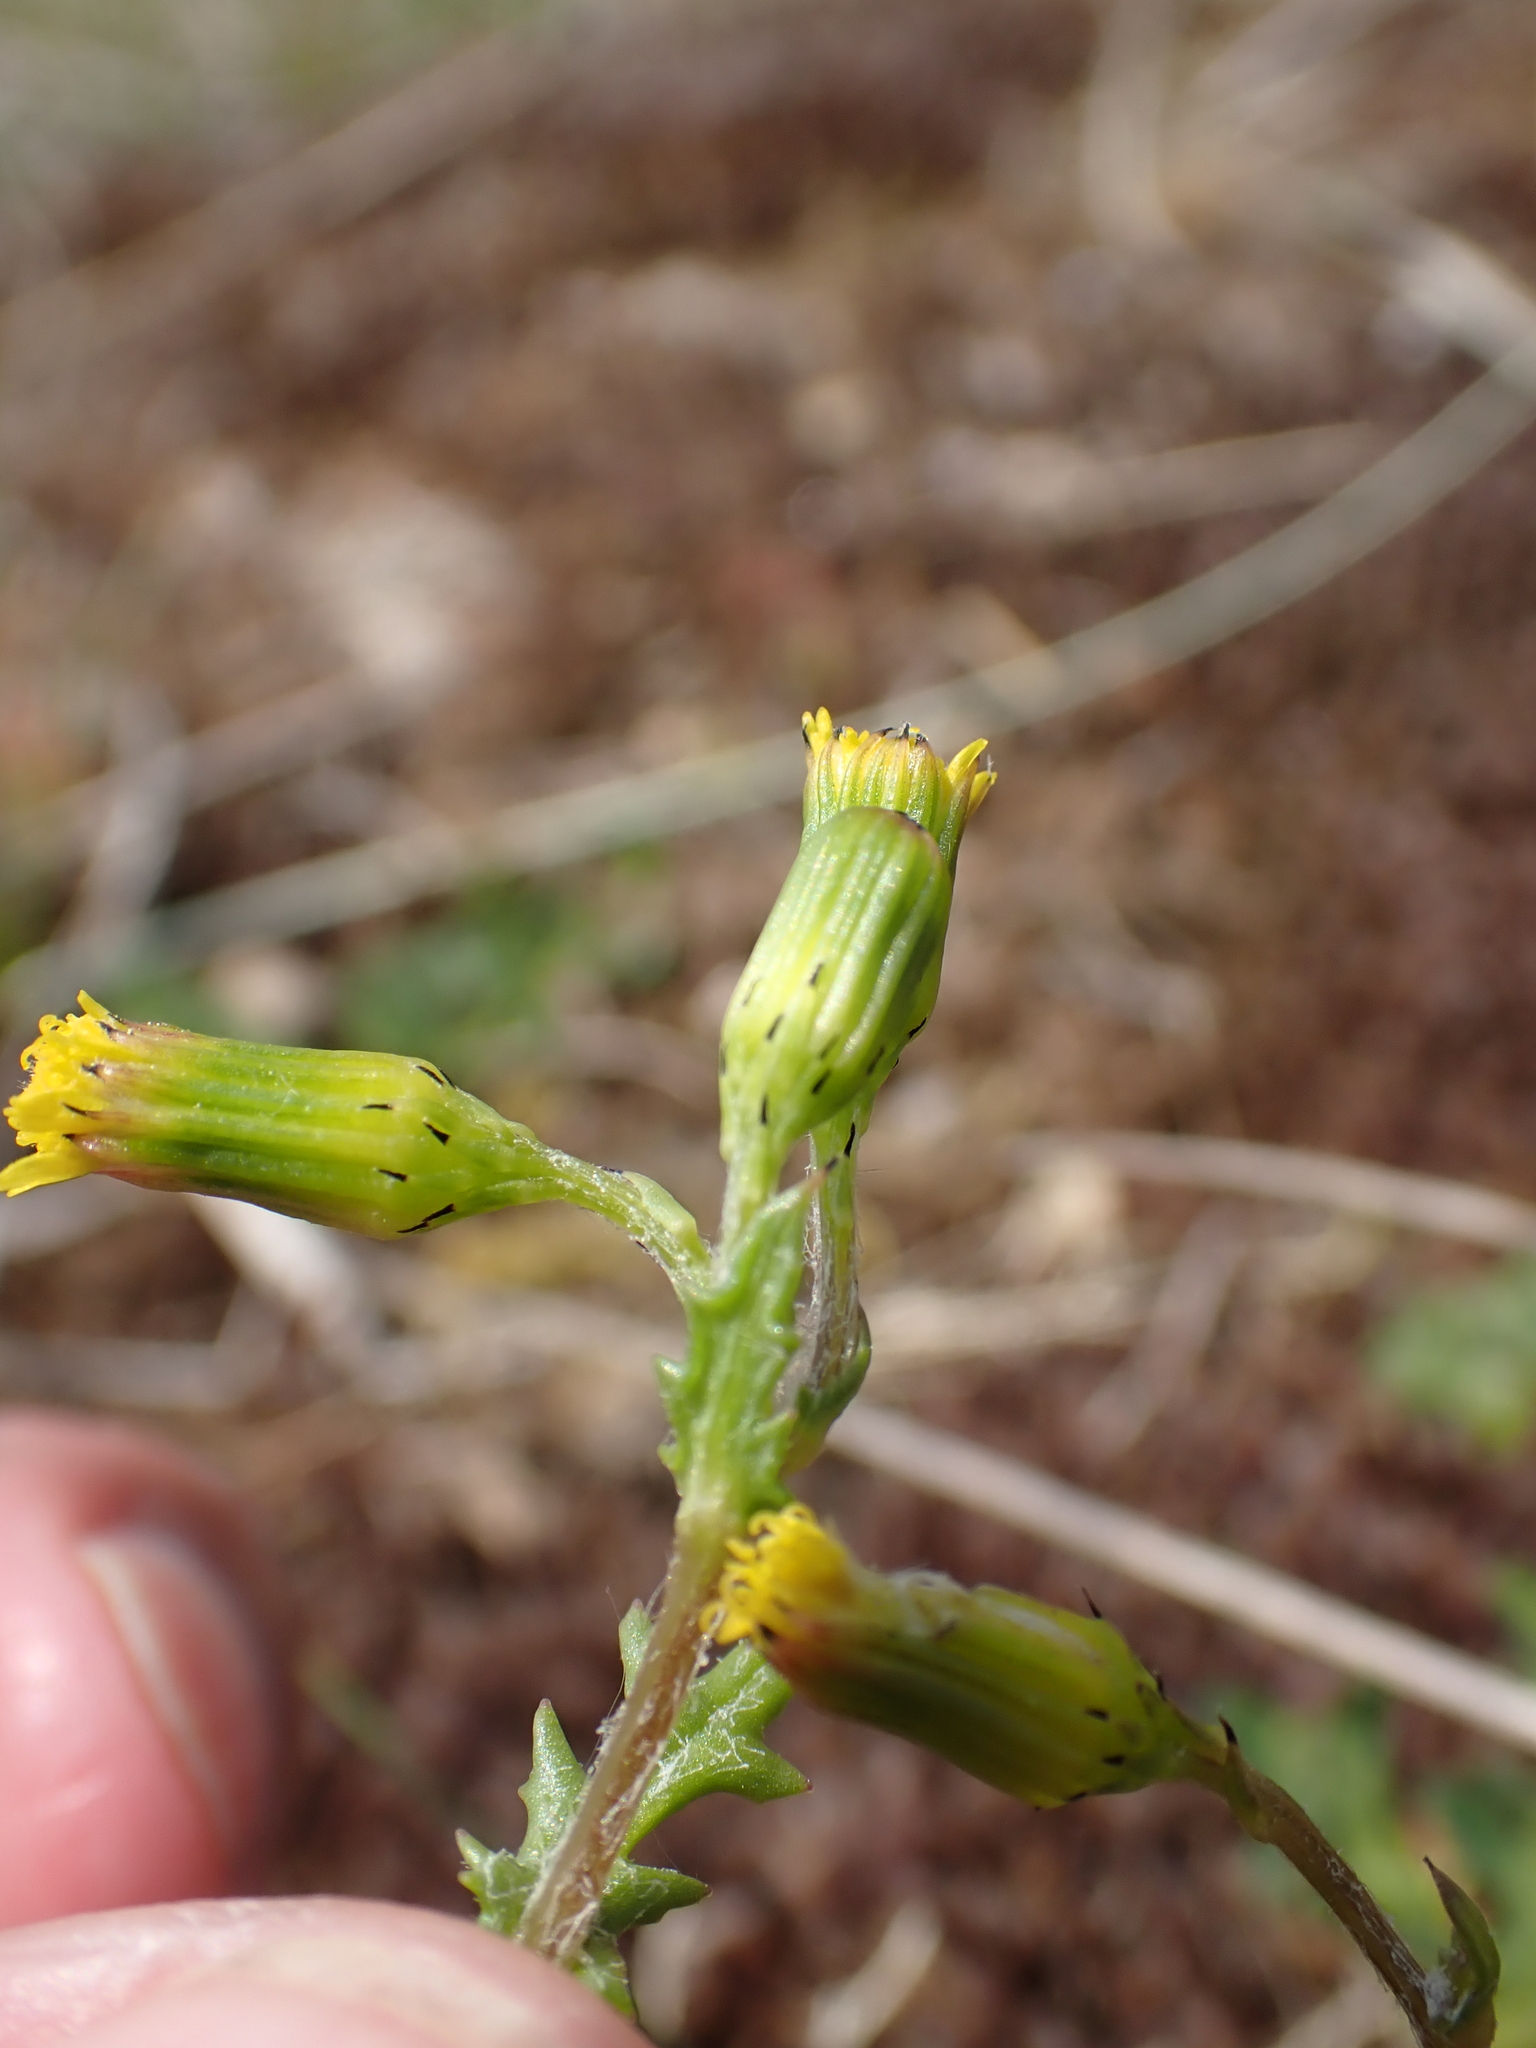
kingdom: Plantae
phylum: Tracheophyta
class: Magnoliopsida
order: Asterales
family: Asteraceae
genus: Senecio
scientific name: Senecio vulgaris
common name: Old-man-in-the-spring
